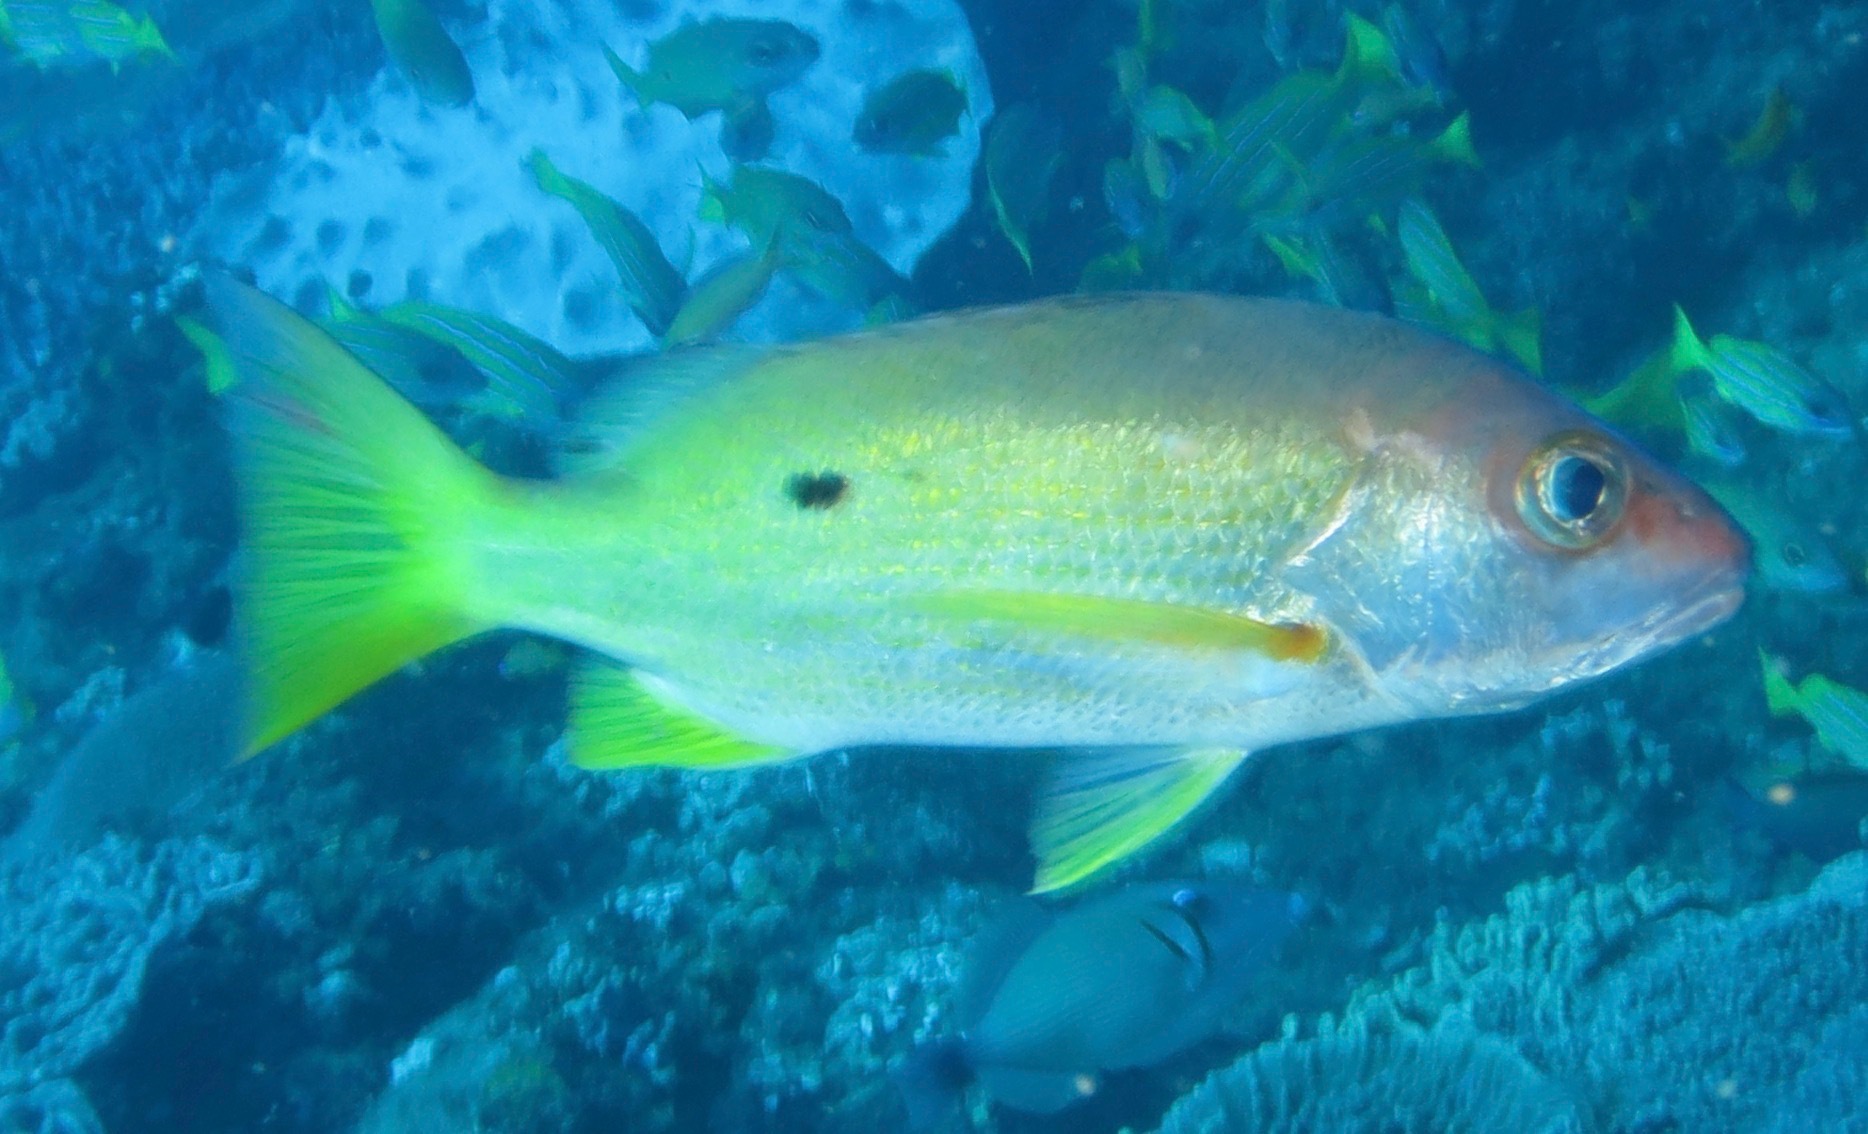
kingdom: Animalia
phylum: Chordata
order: Perciformes
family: Lutjanidae
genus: Lutjanus
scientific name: Lutjanus fulviflamma
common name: Blackspot snapper
